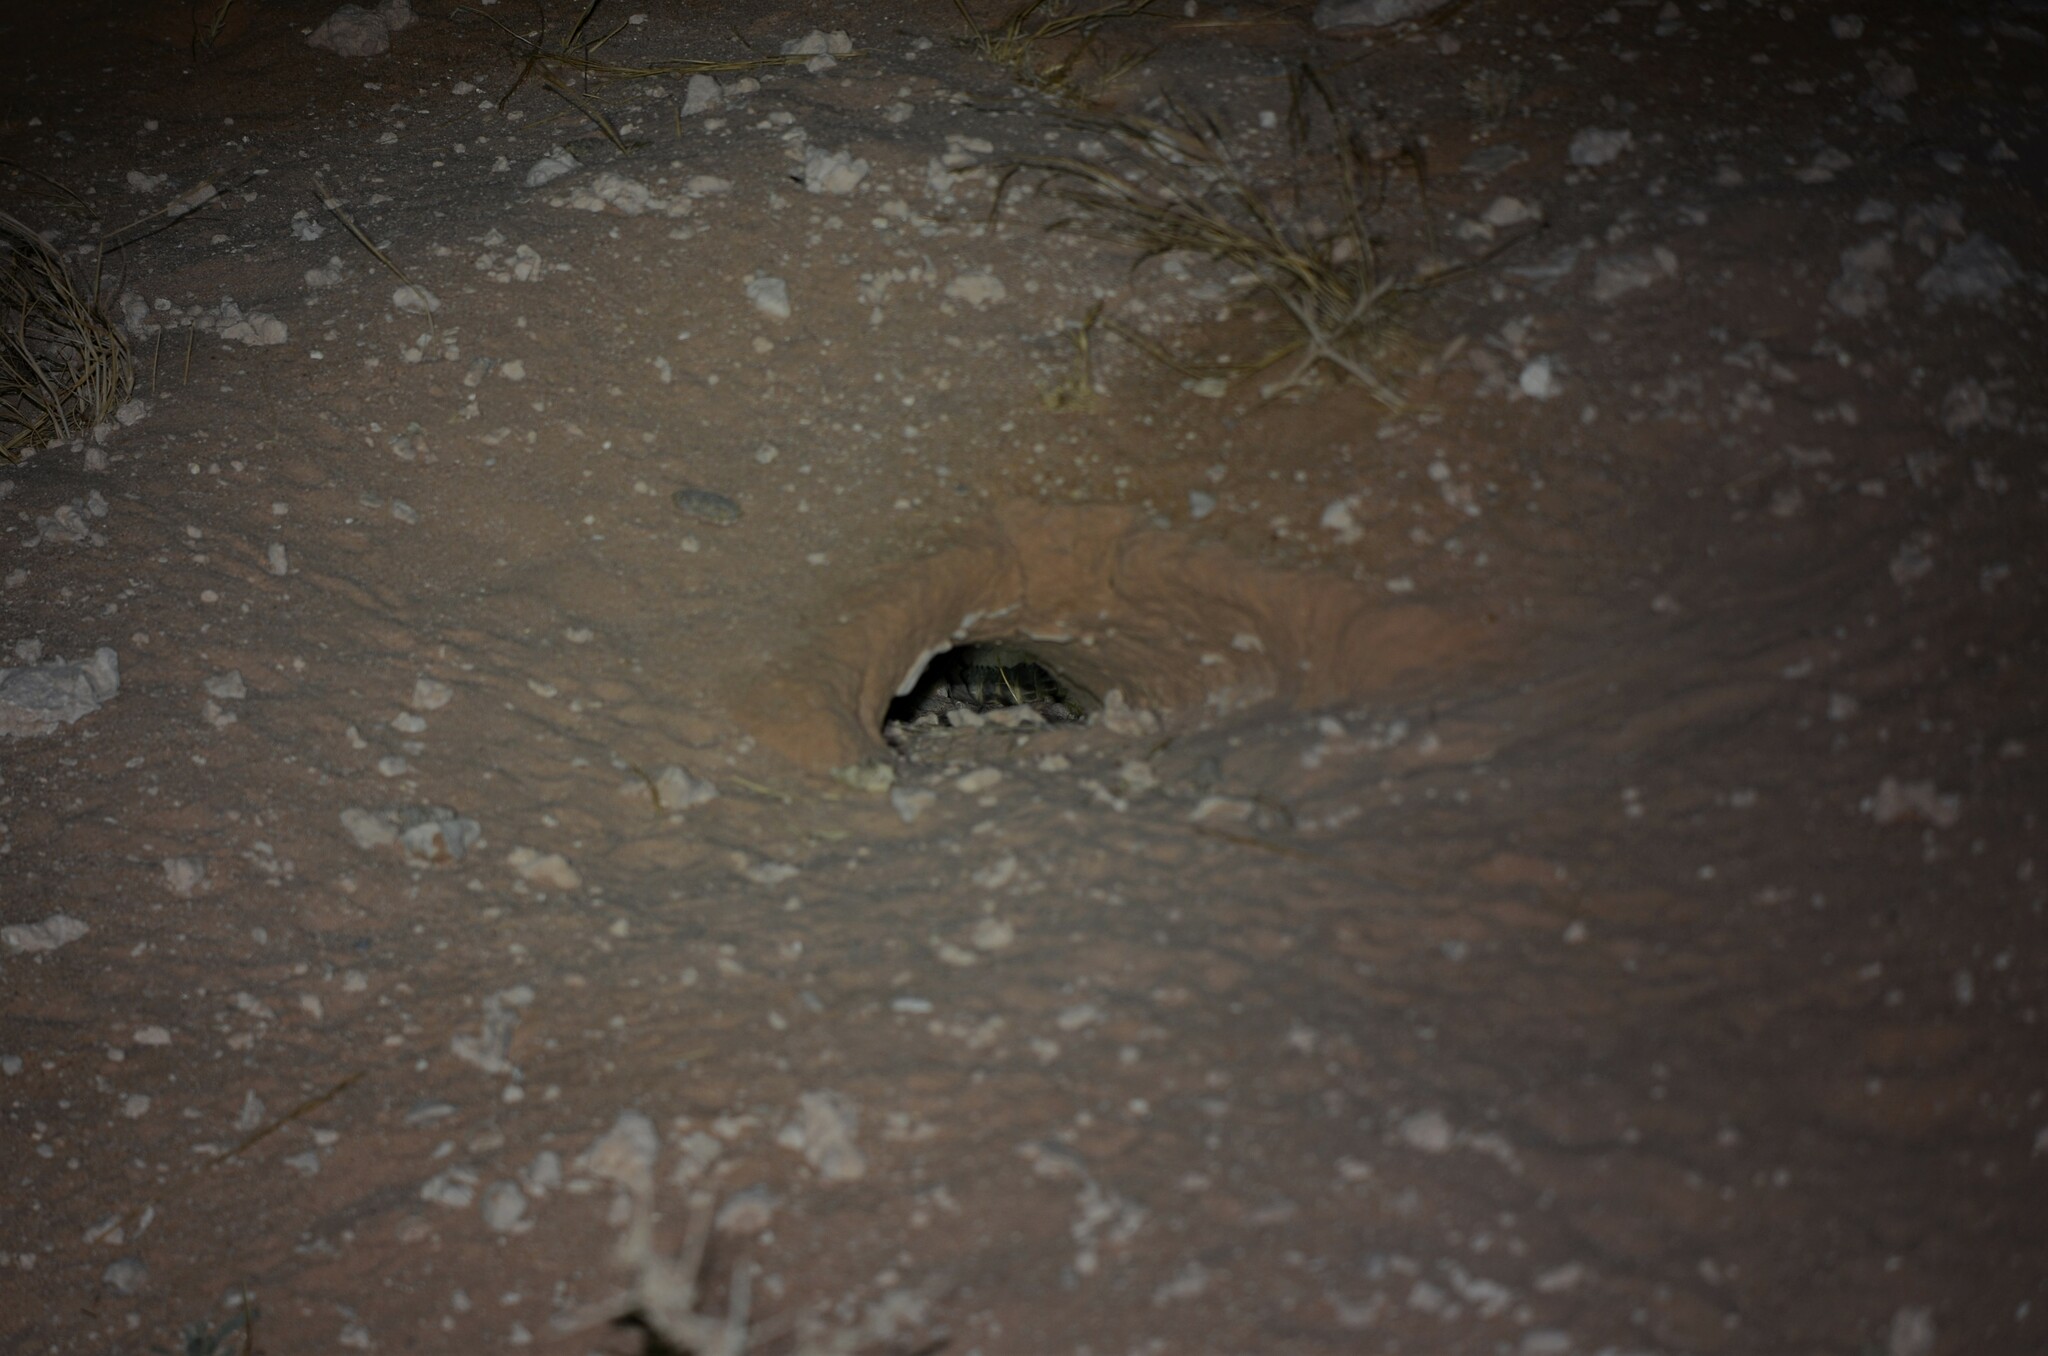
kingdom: Animalia
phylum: Chordata
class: Squamata
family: Agamidae
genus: Uromastyx
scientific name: Uromastyx aegyptia
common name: Egyptian mastigure
